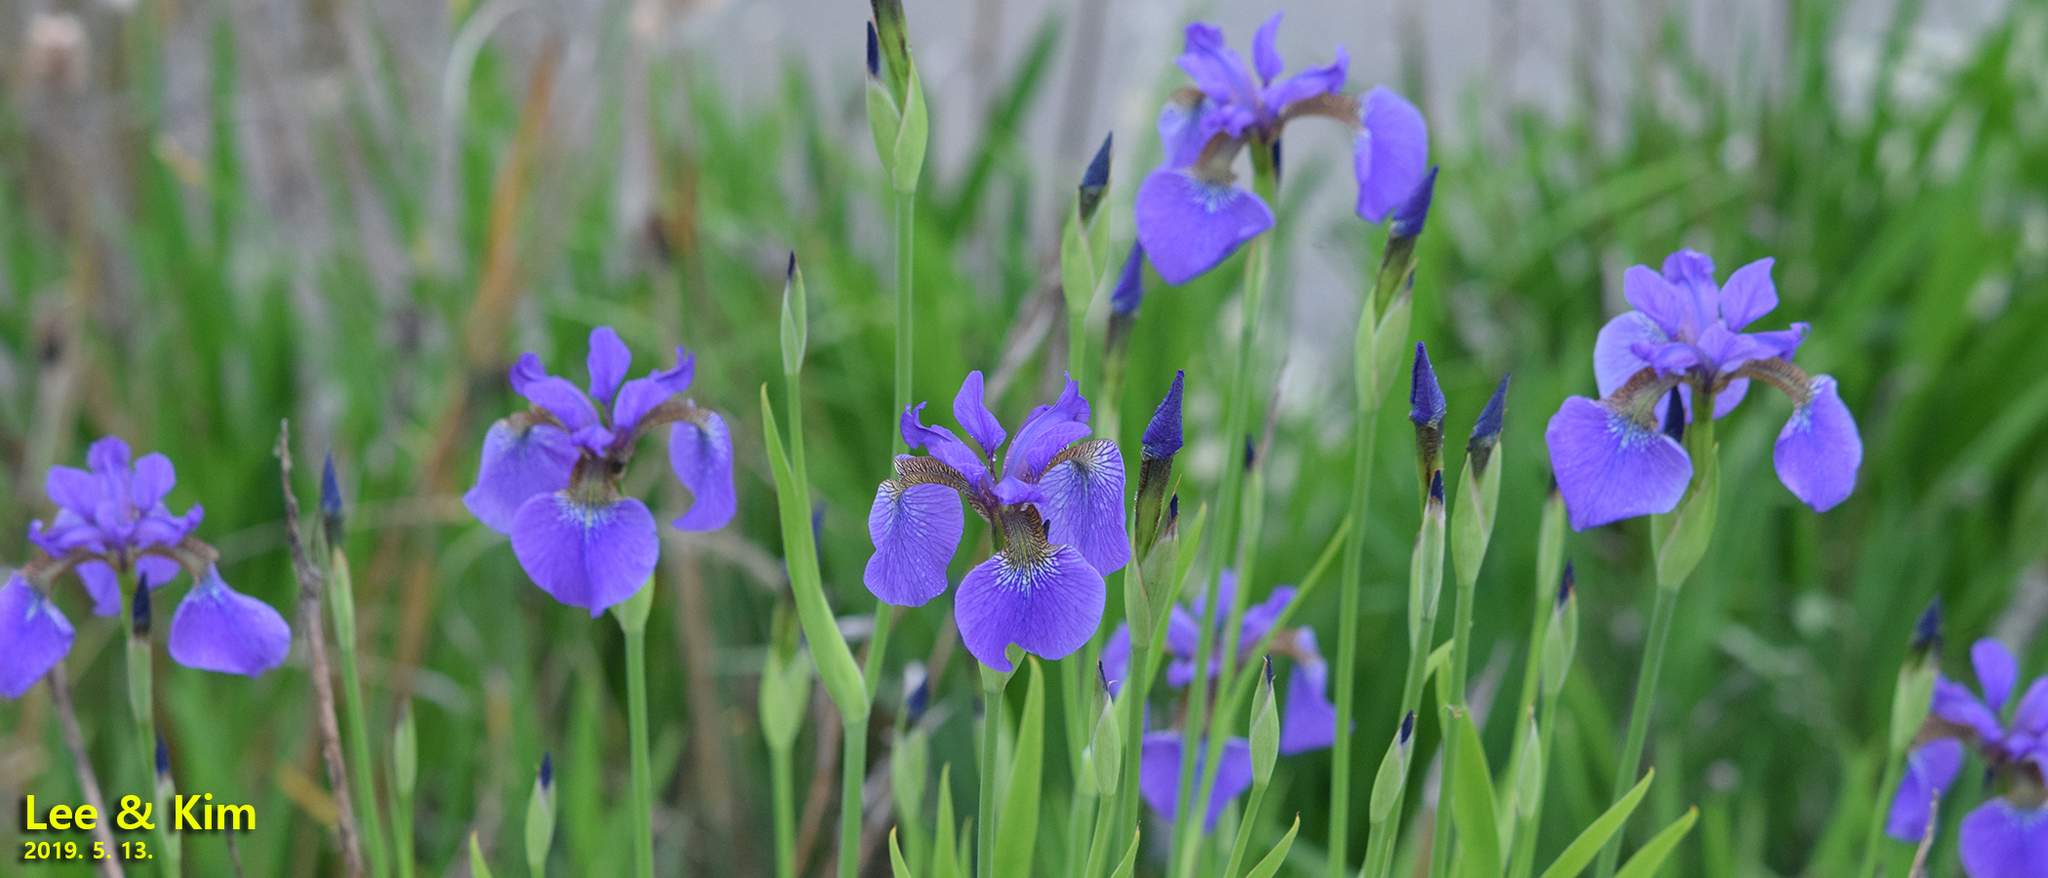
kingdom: Plantae
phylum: Tracheophyta
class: Liliopsida
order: Asparagales
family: Iridaceae
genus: Iris
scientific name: Iris sanguinea
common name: Blood iris
